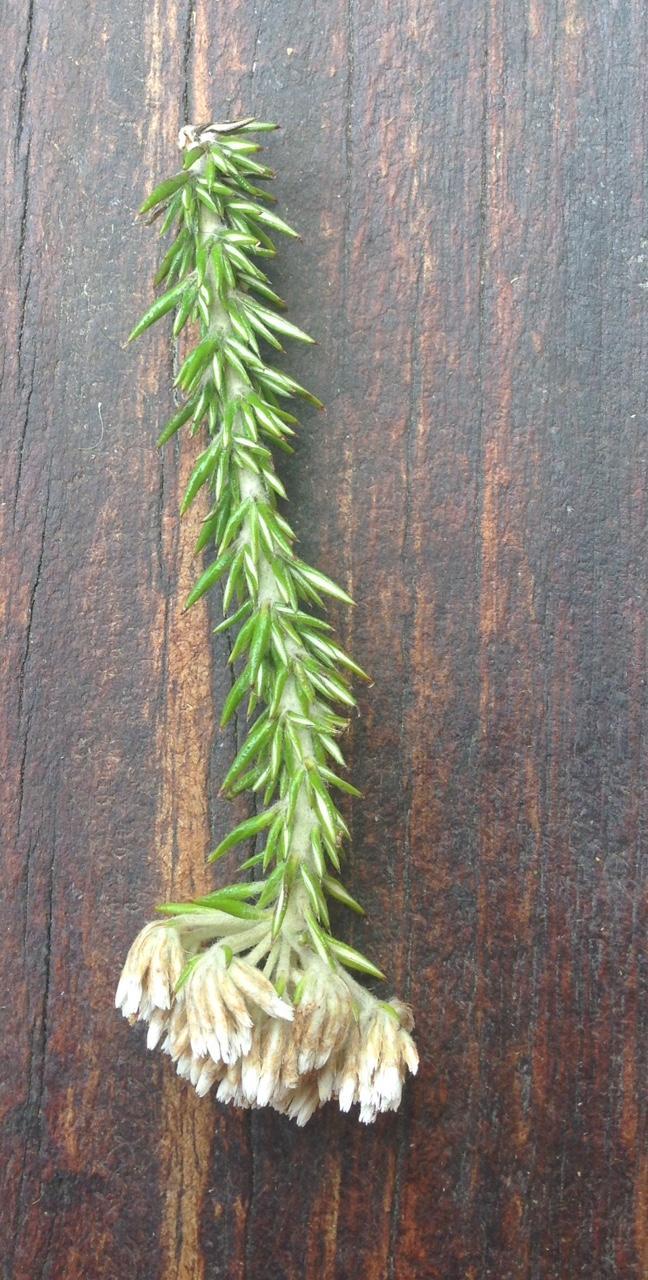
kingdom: Plantae
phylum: Tracheophyta
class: Magnoliopsida
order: Asterales
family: Asteraceae
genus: Metalasia
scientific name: Metalasia densa
